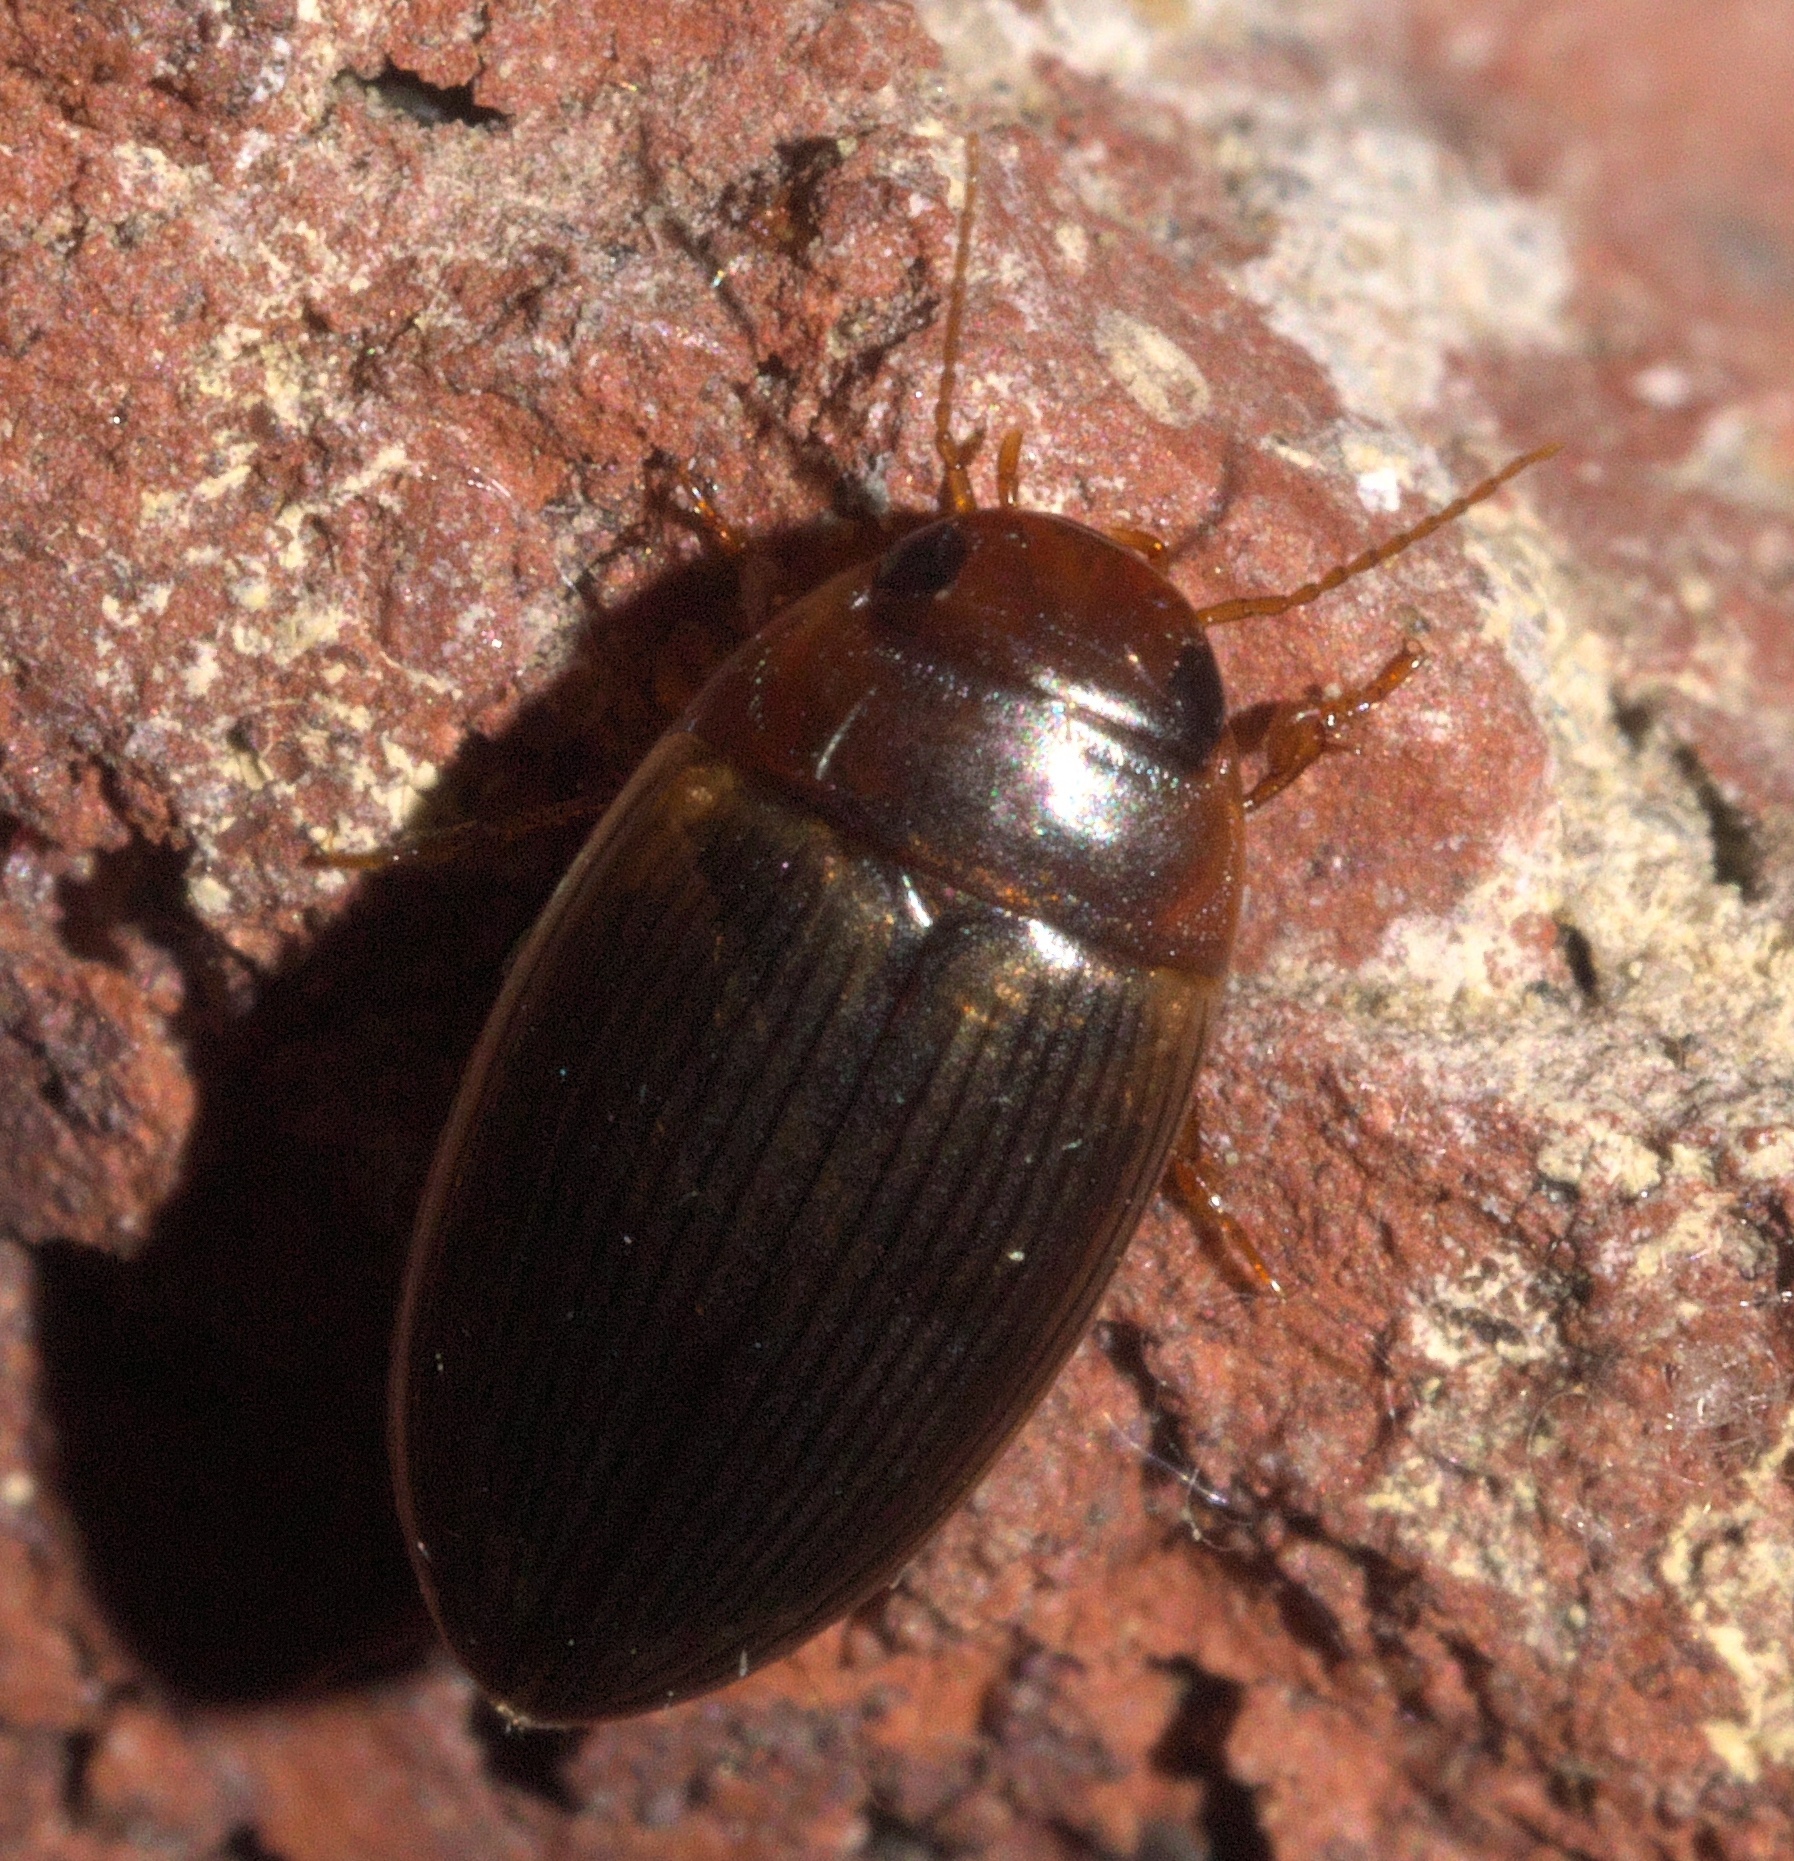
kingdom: Animalia
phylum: Arthropoda
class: Insecta
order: Coleoptera
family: Dytiscidae
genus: Copelatus
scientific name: Copelatus glyphicus
